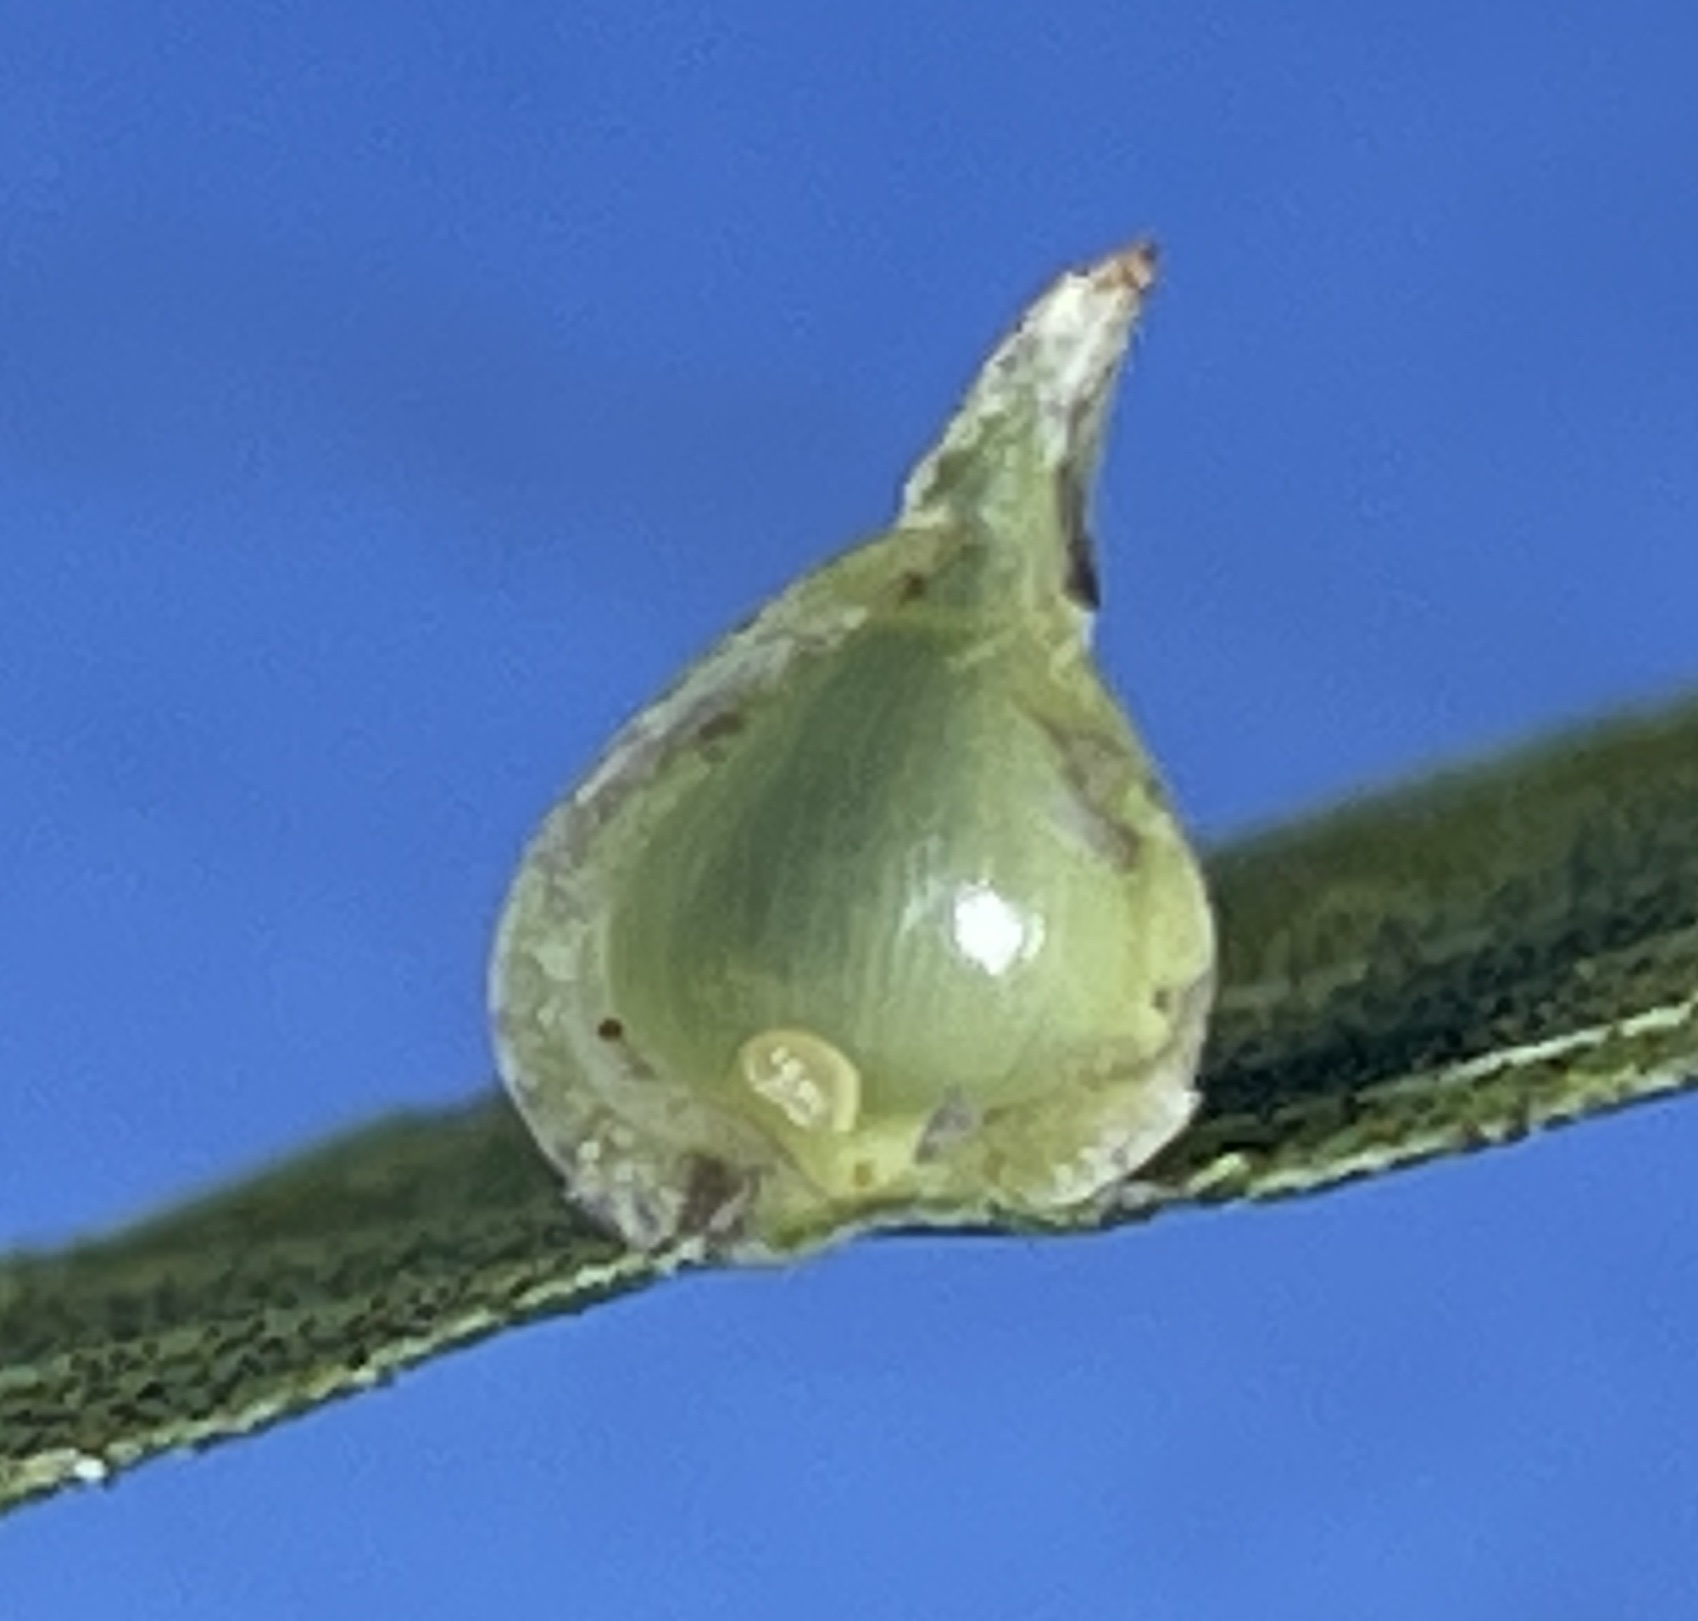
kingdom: Animalia
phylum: Arthropoda
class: Insecta
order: Diptera
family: Cecidomyiidae
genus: Caryomyia
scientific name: Caryomyia caryaecola
